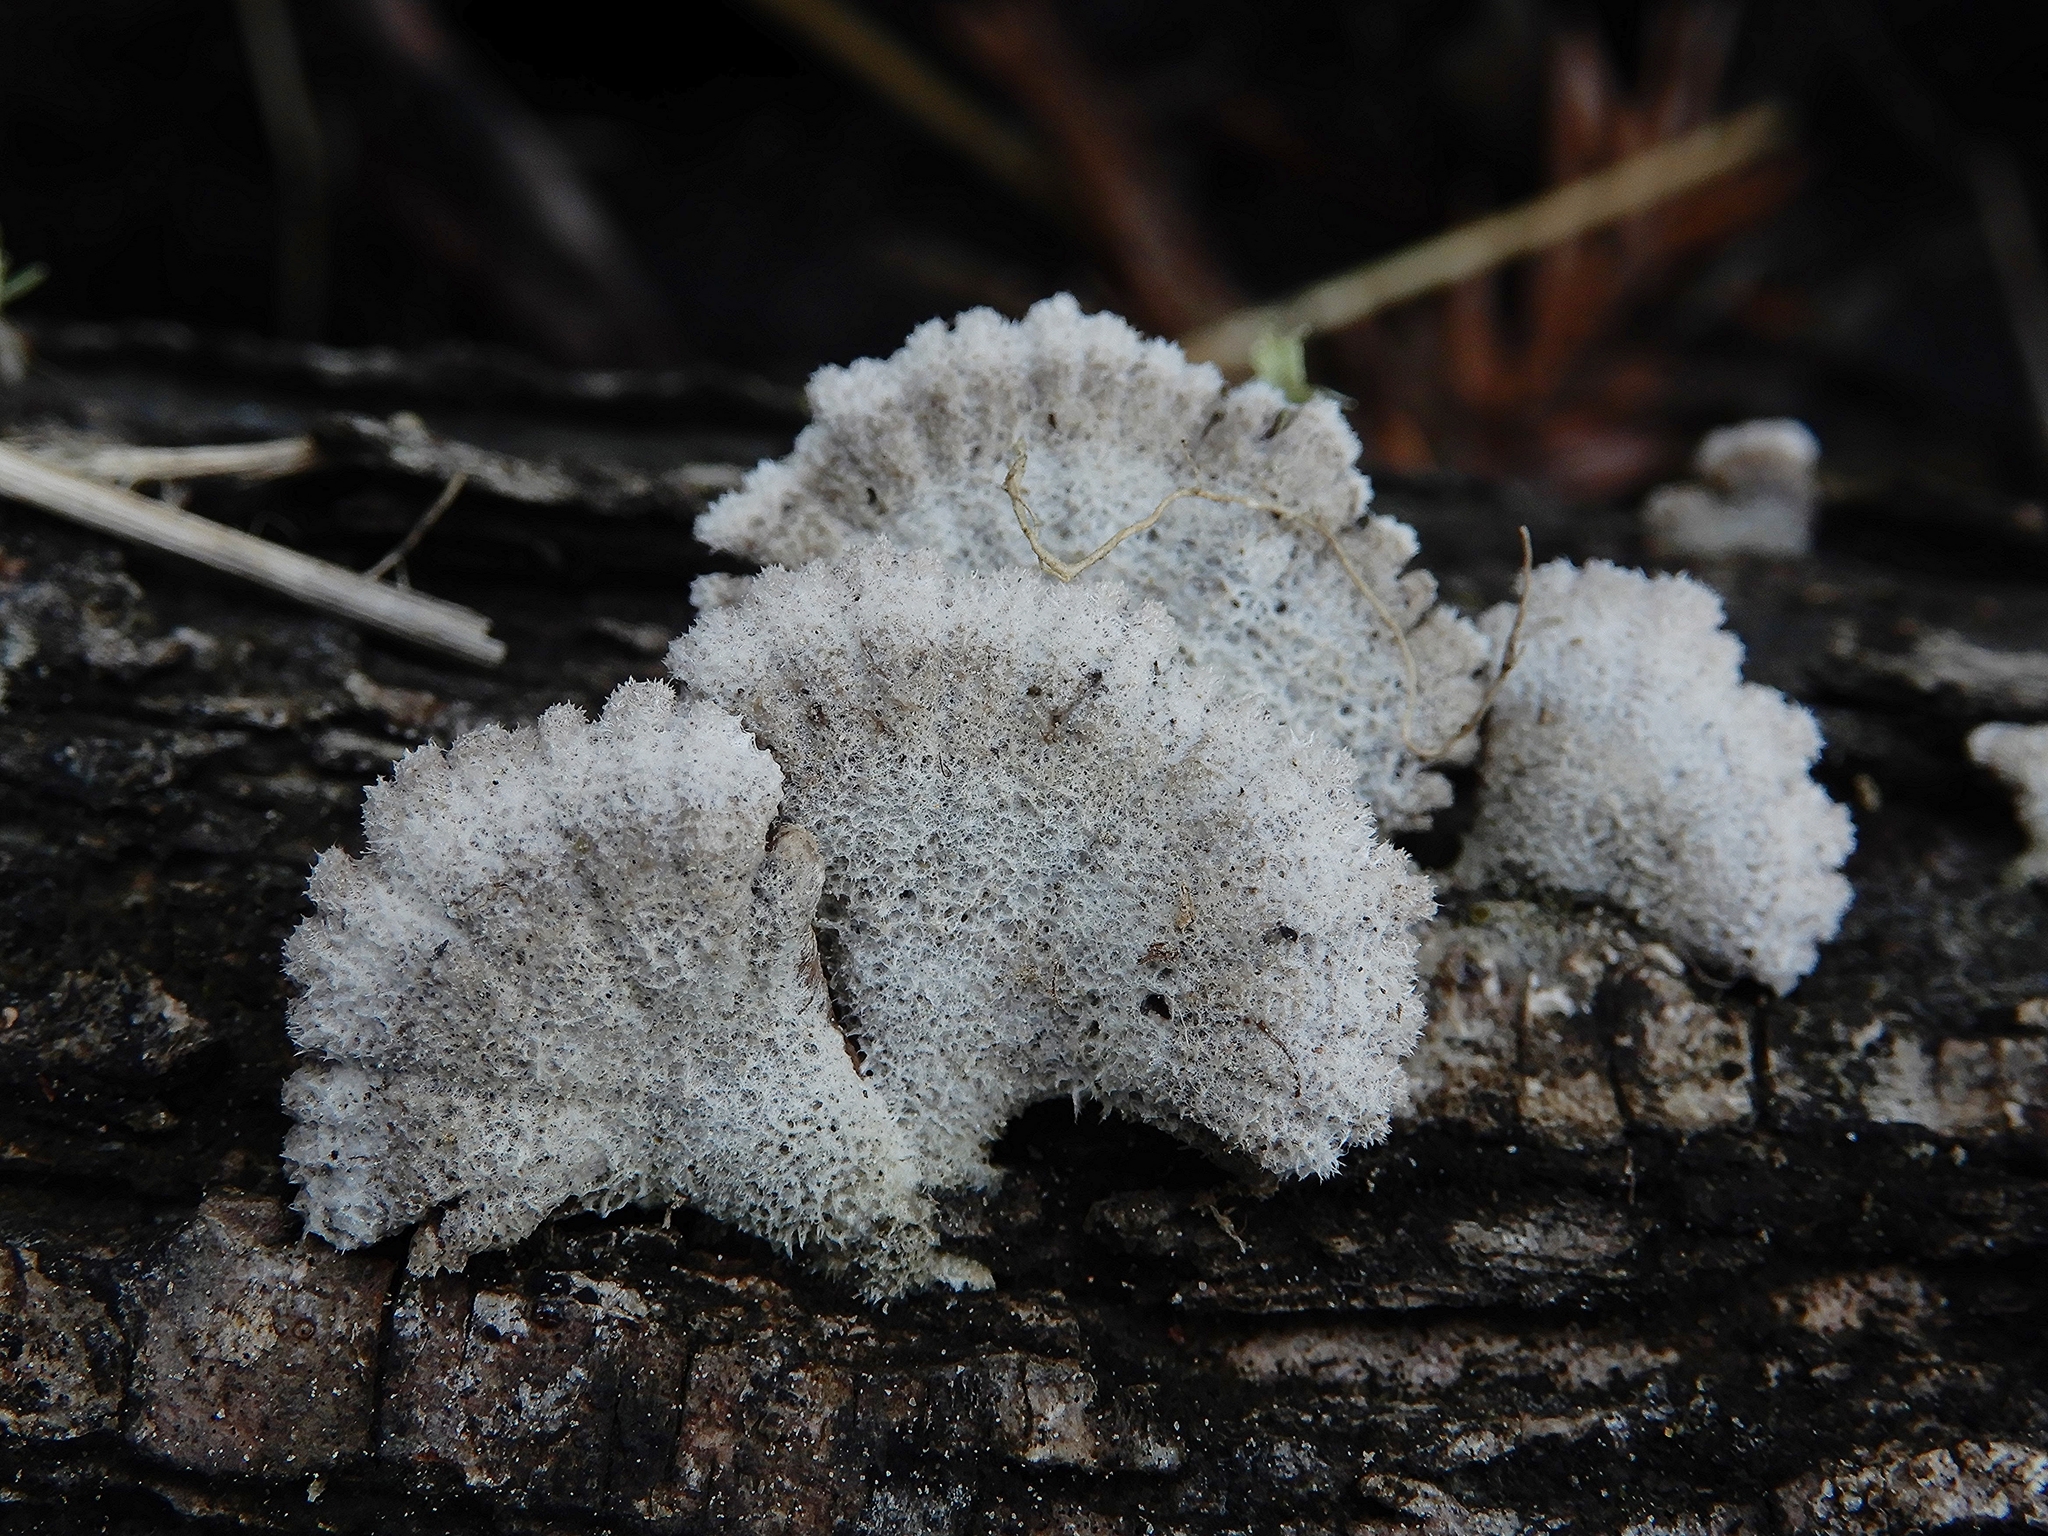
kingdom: Fungi
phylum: Basidiomycota
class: Agaricomycetes
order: Agaricales
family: Schizophyllaceae
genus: Schizophyllum
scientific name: Schizophyllum commune
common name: Common porecrust
